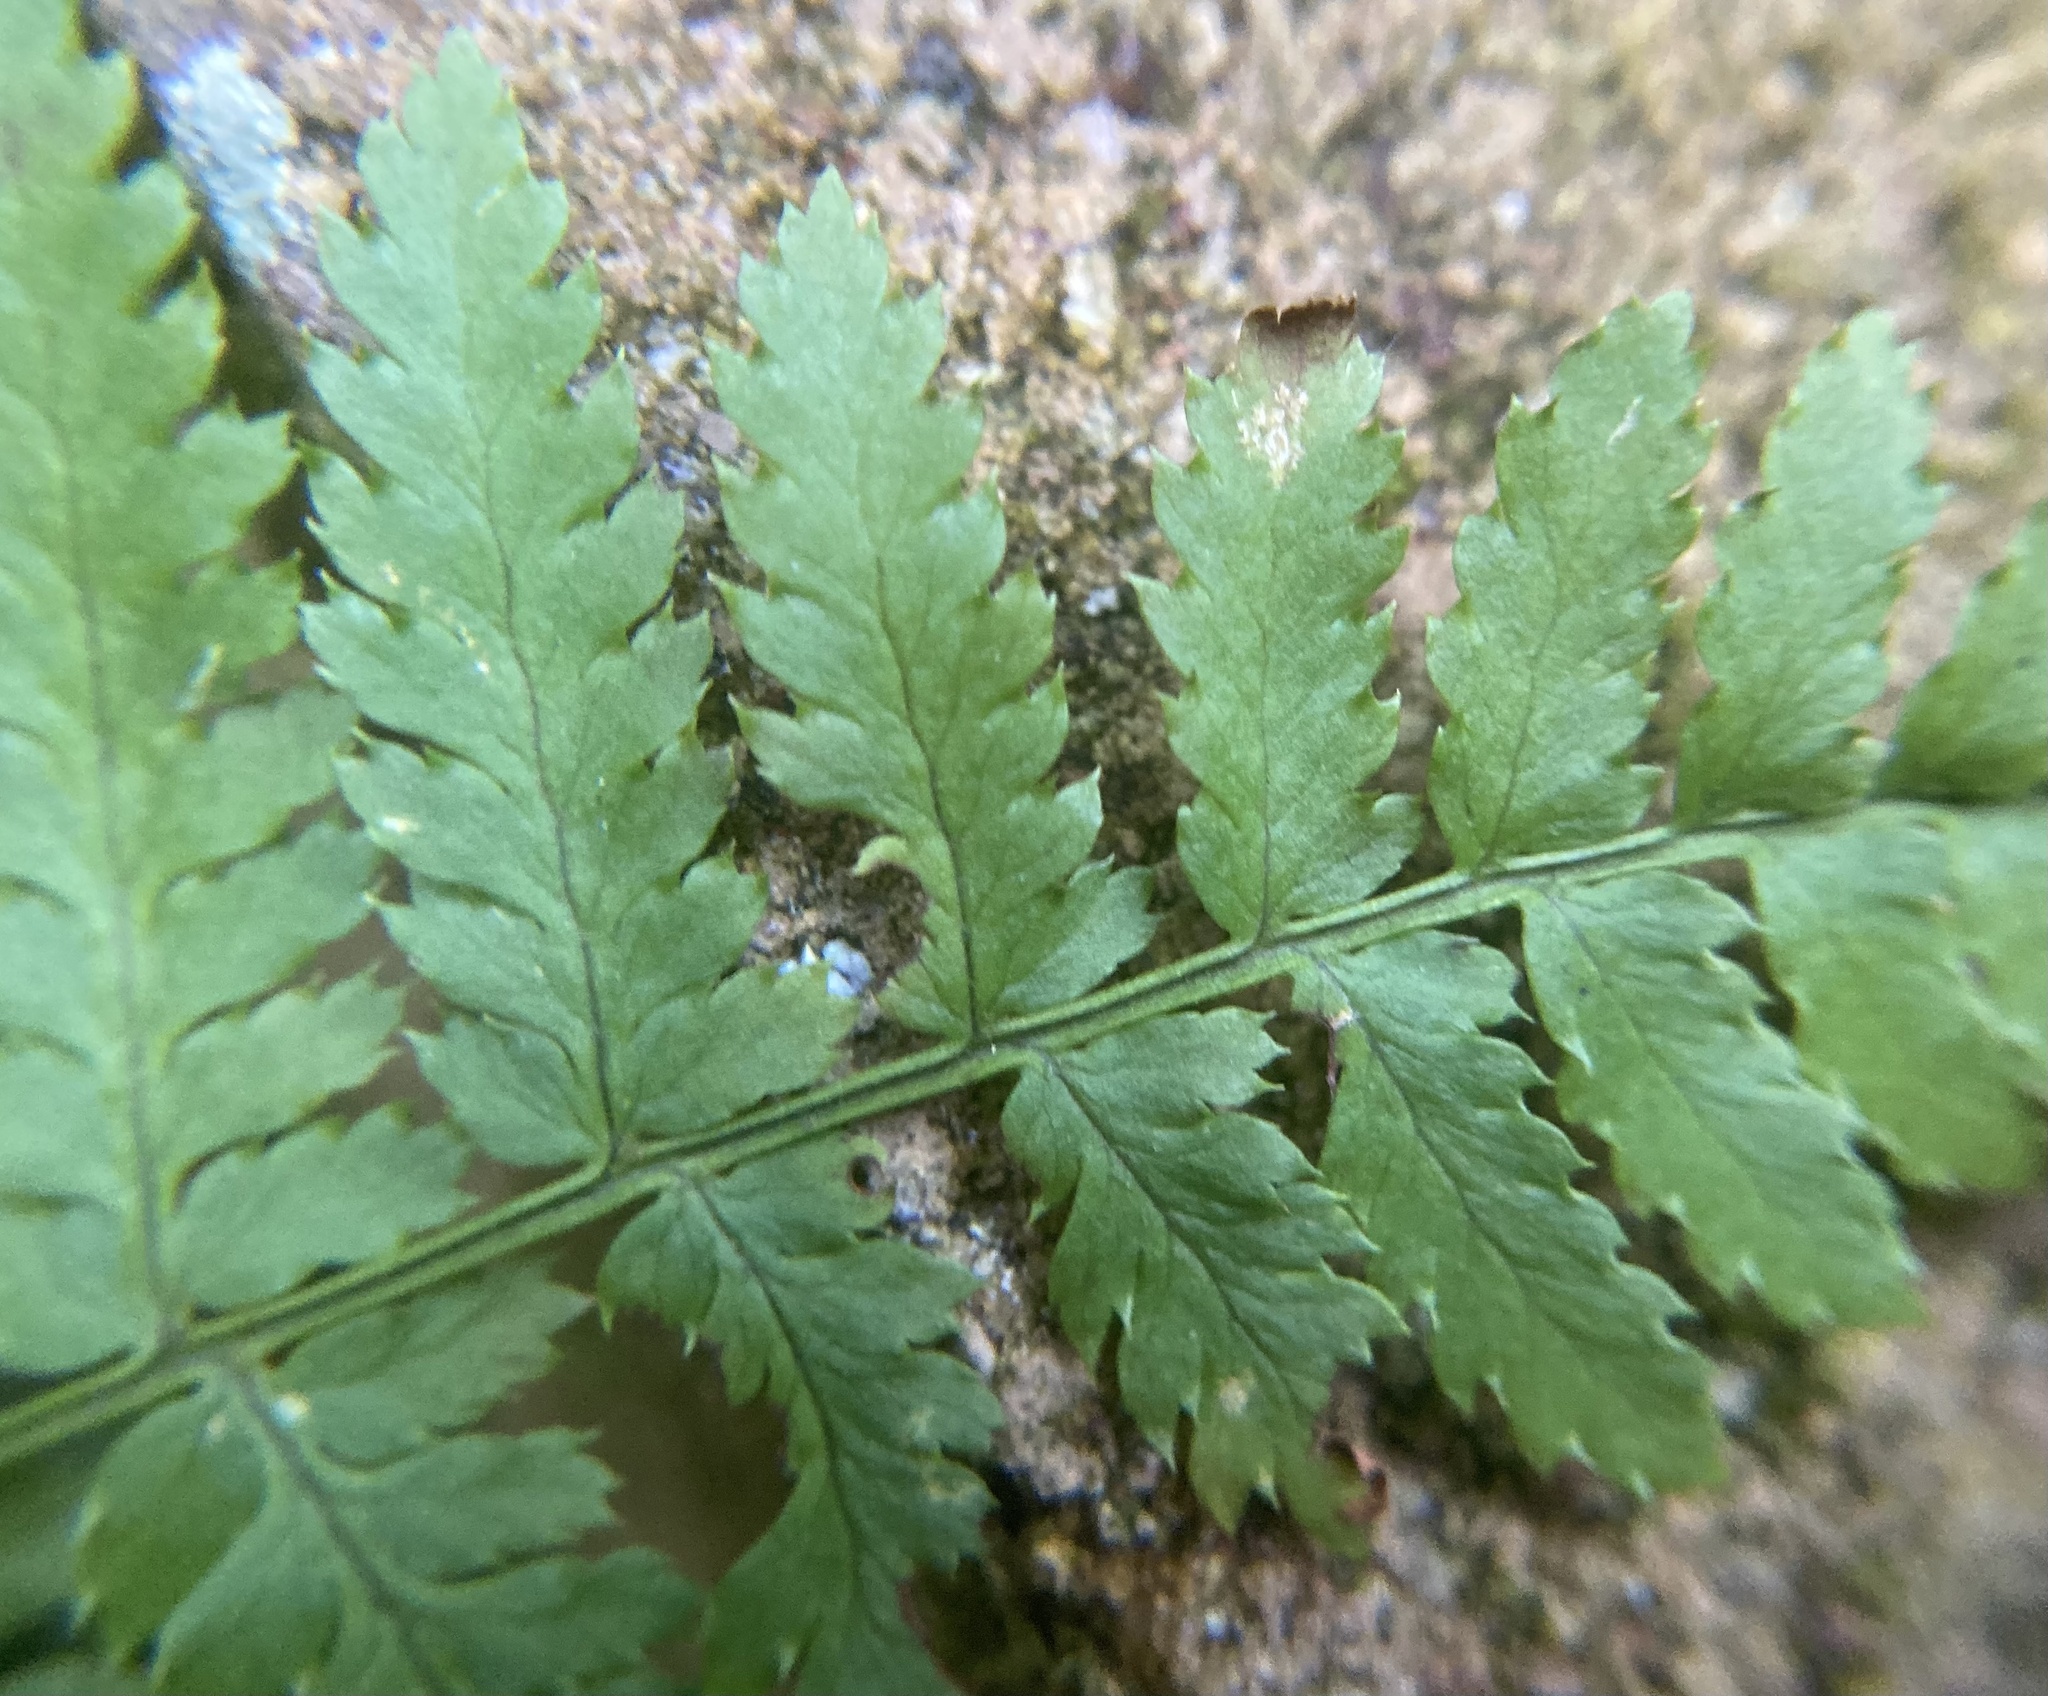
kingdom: Plantae
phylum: Tracheophyta
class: Polypodiopsida
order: Polypodiales
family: Dryopteridaceae
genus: Dryopteris
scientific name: Dryopteris intermedia
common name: Evergreen wood fern
